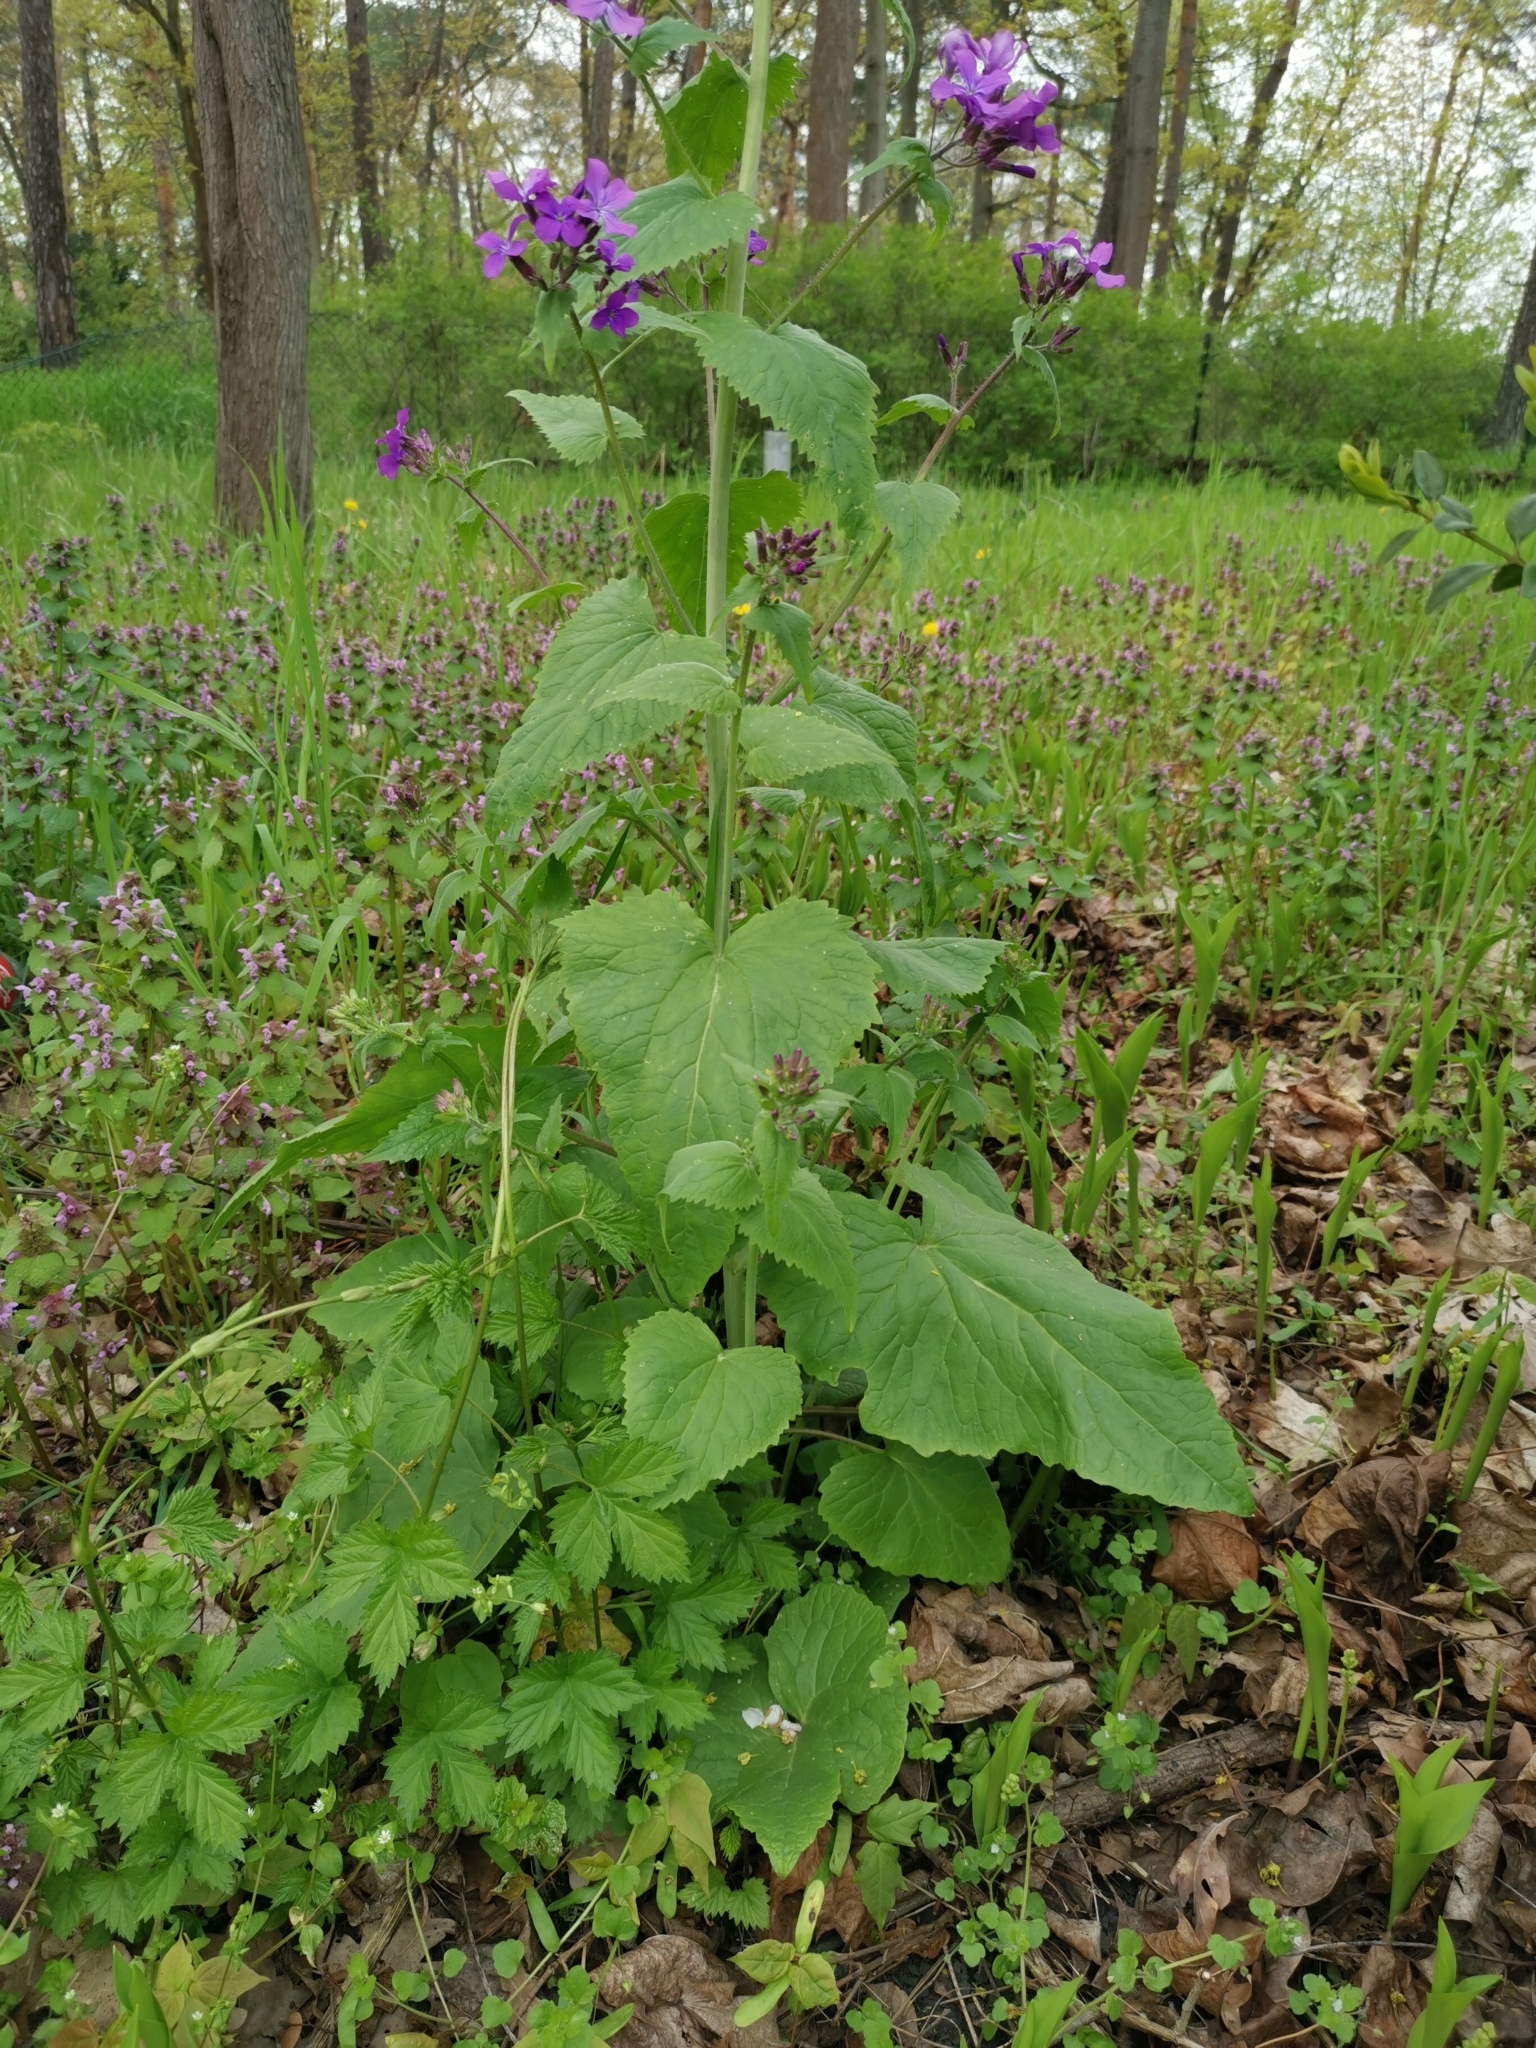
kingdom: Plantae
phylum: Tracheophyta
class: Magnoliopsida
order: Brassicales
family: Brassicaceae
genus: Lunaria
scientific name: Lunaria annua
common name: Honesty
